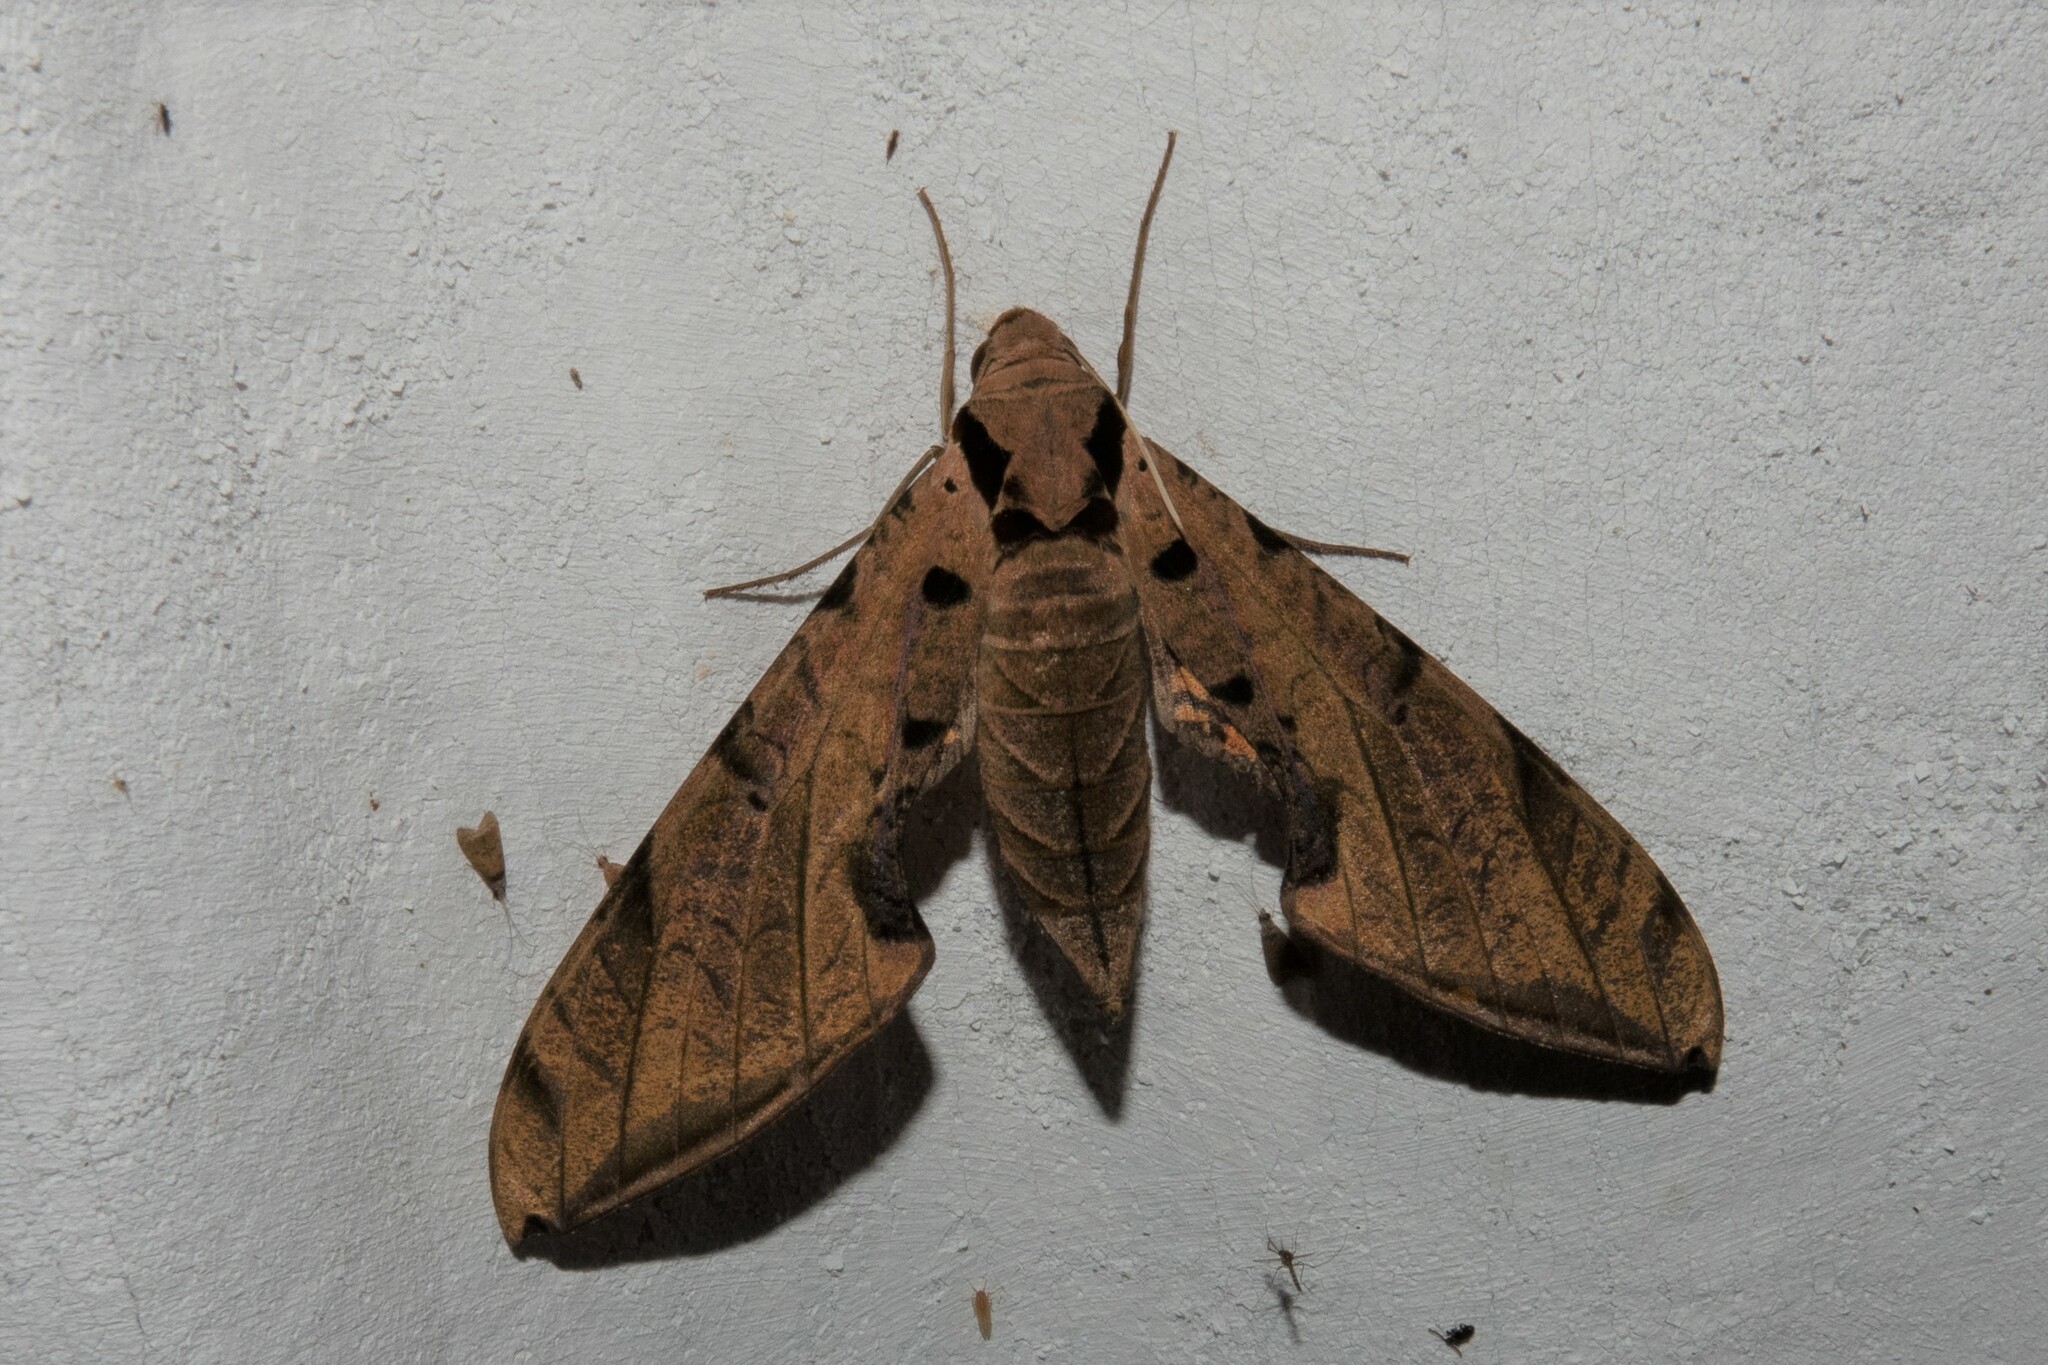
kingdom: Animalia
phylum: Arthropoda
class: Insecta
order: Lepidoptera
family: Sphingidae
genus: Protambulyx
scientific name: Protambulyx strigilis
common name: Streaked sphinx
